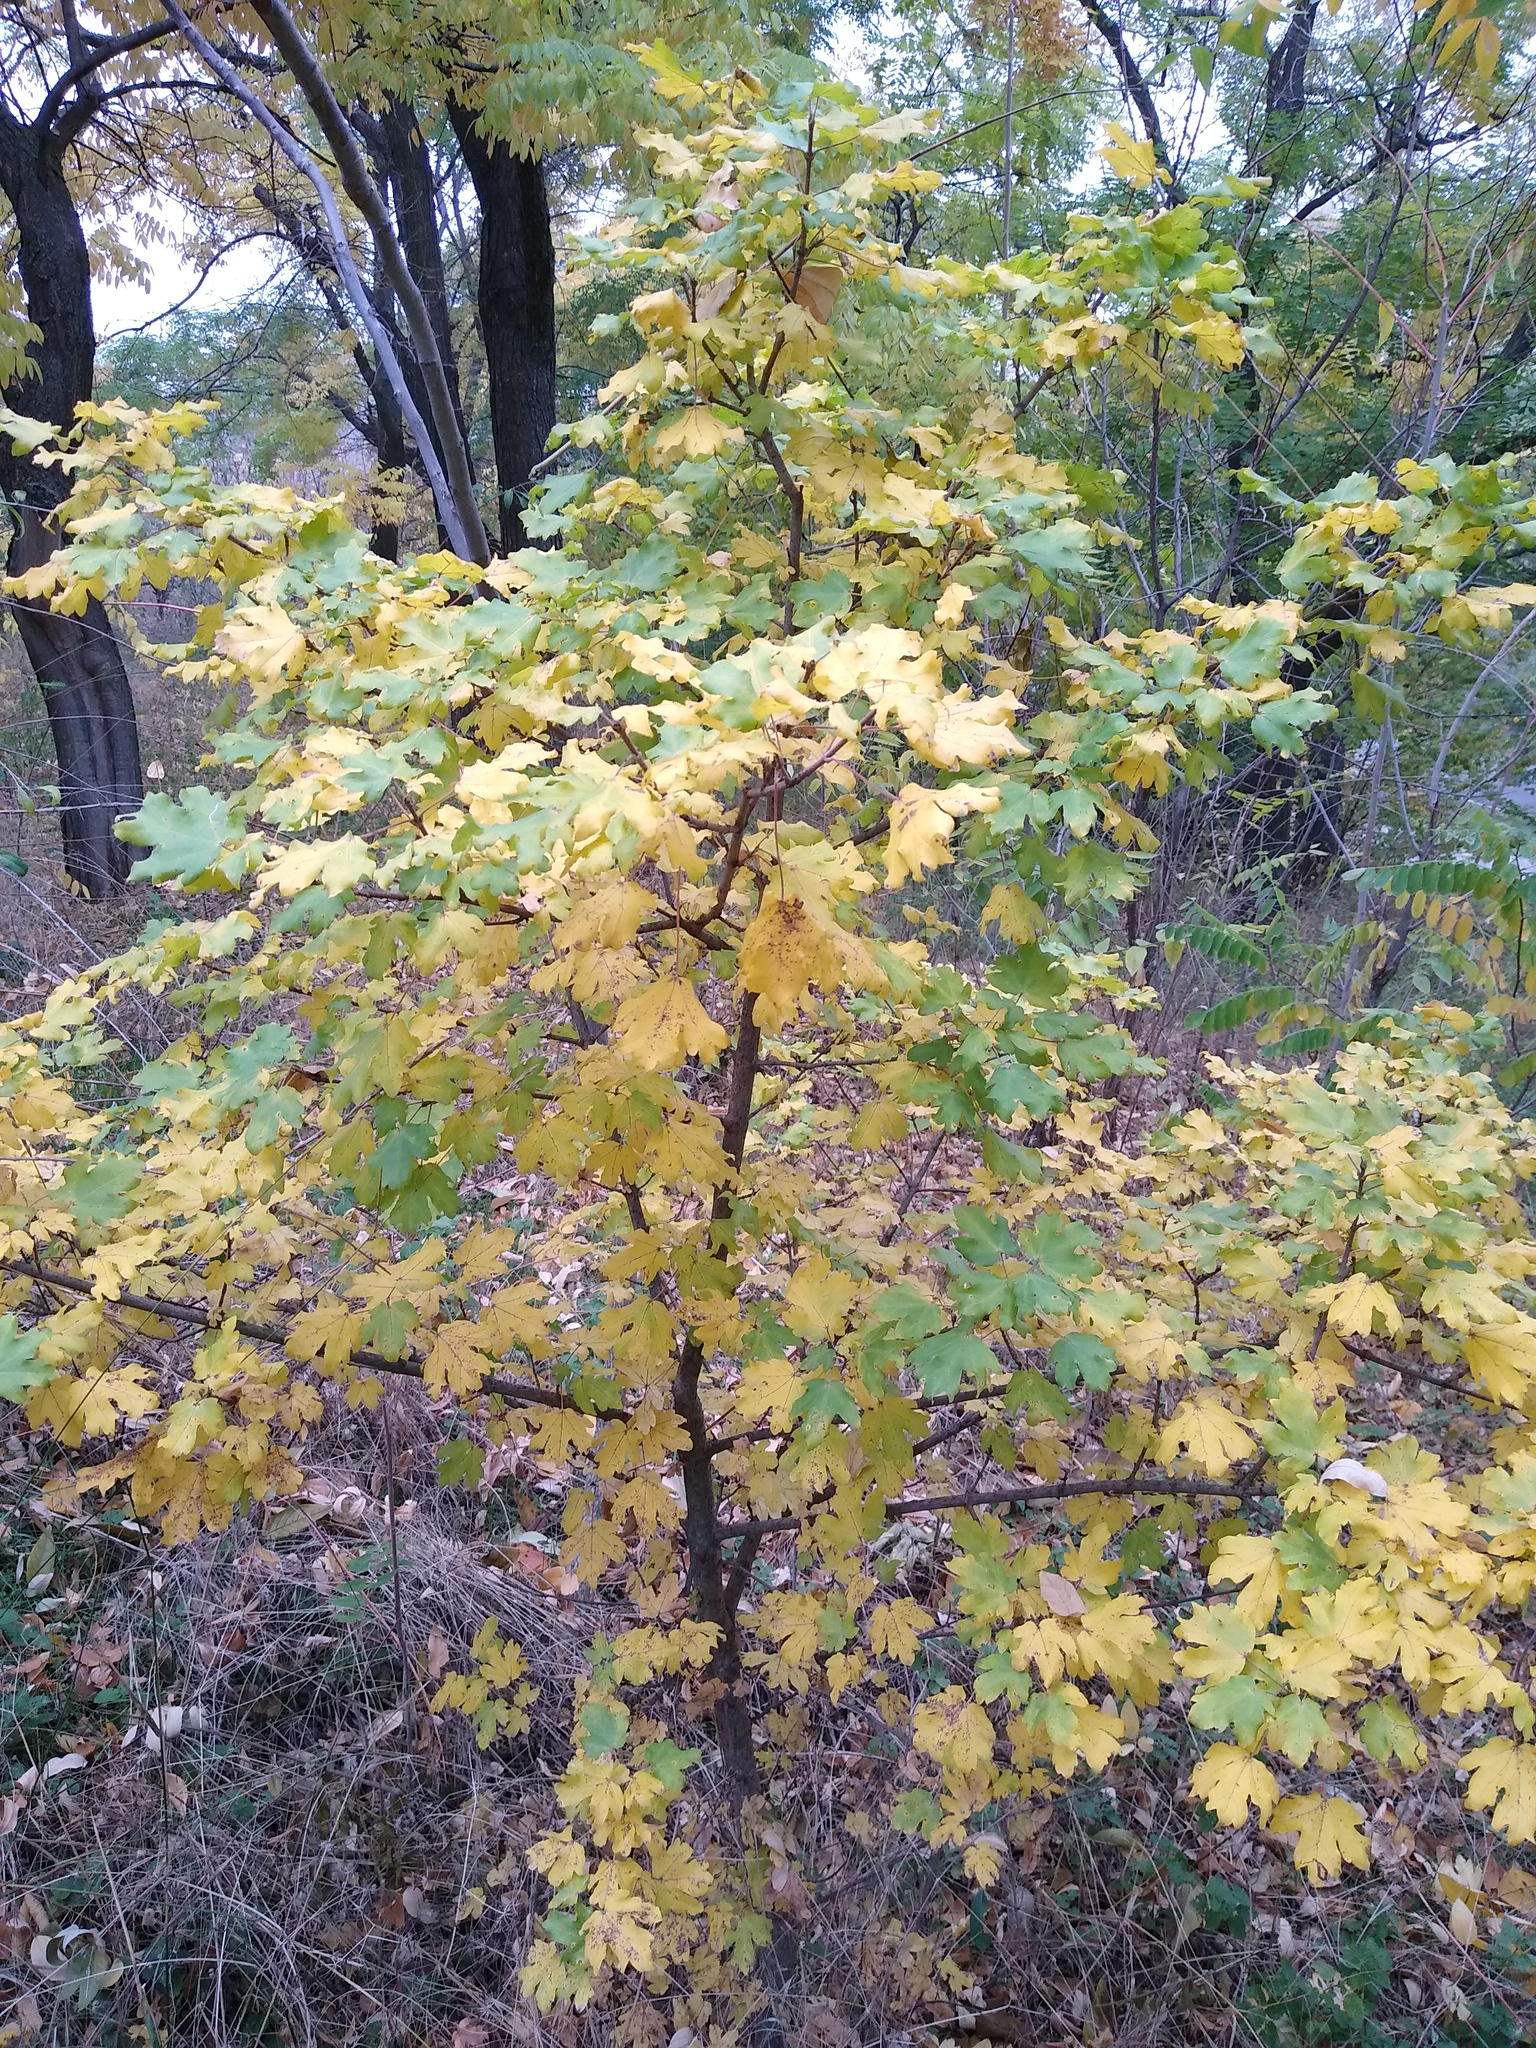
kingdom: Plantae
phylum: Tracheophyta
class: Magnoliopsida
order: Sapindales
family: Sapindaceae
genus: Acer
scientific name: Acer campestre
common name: Field maple
